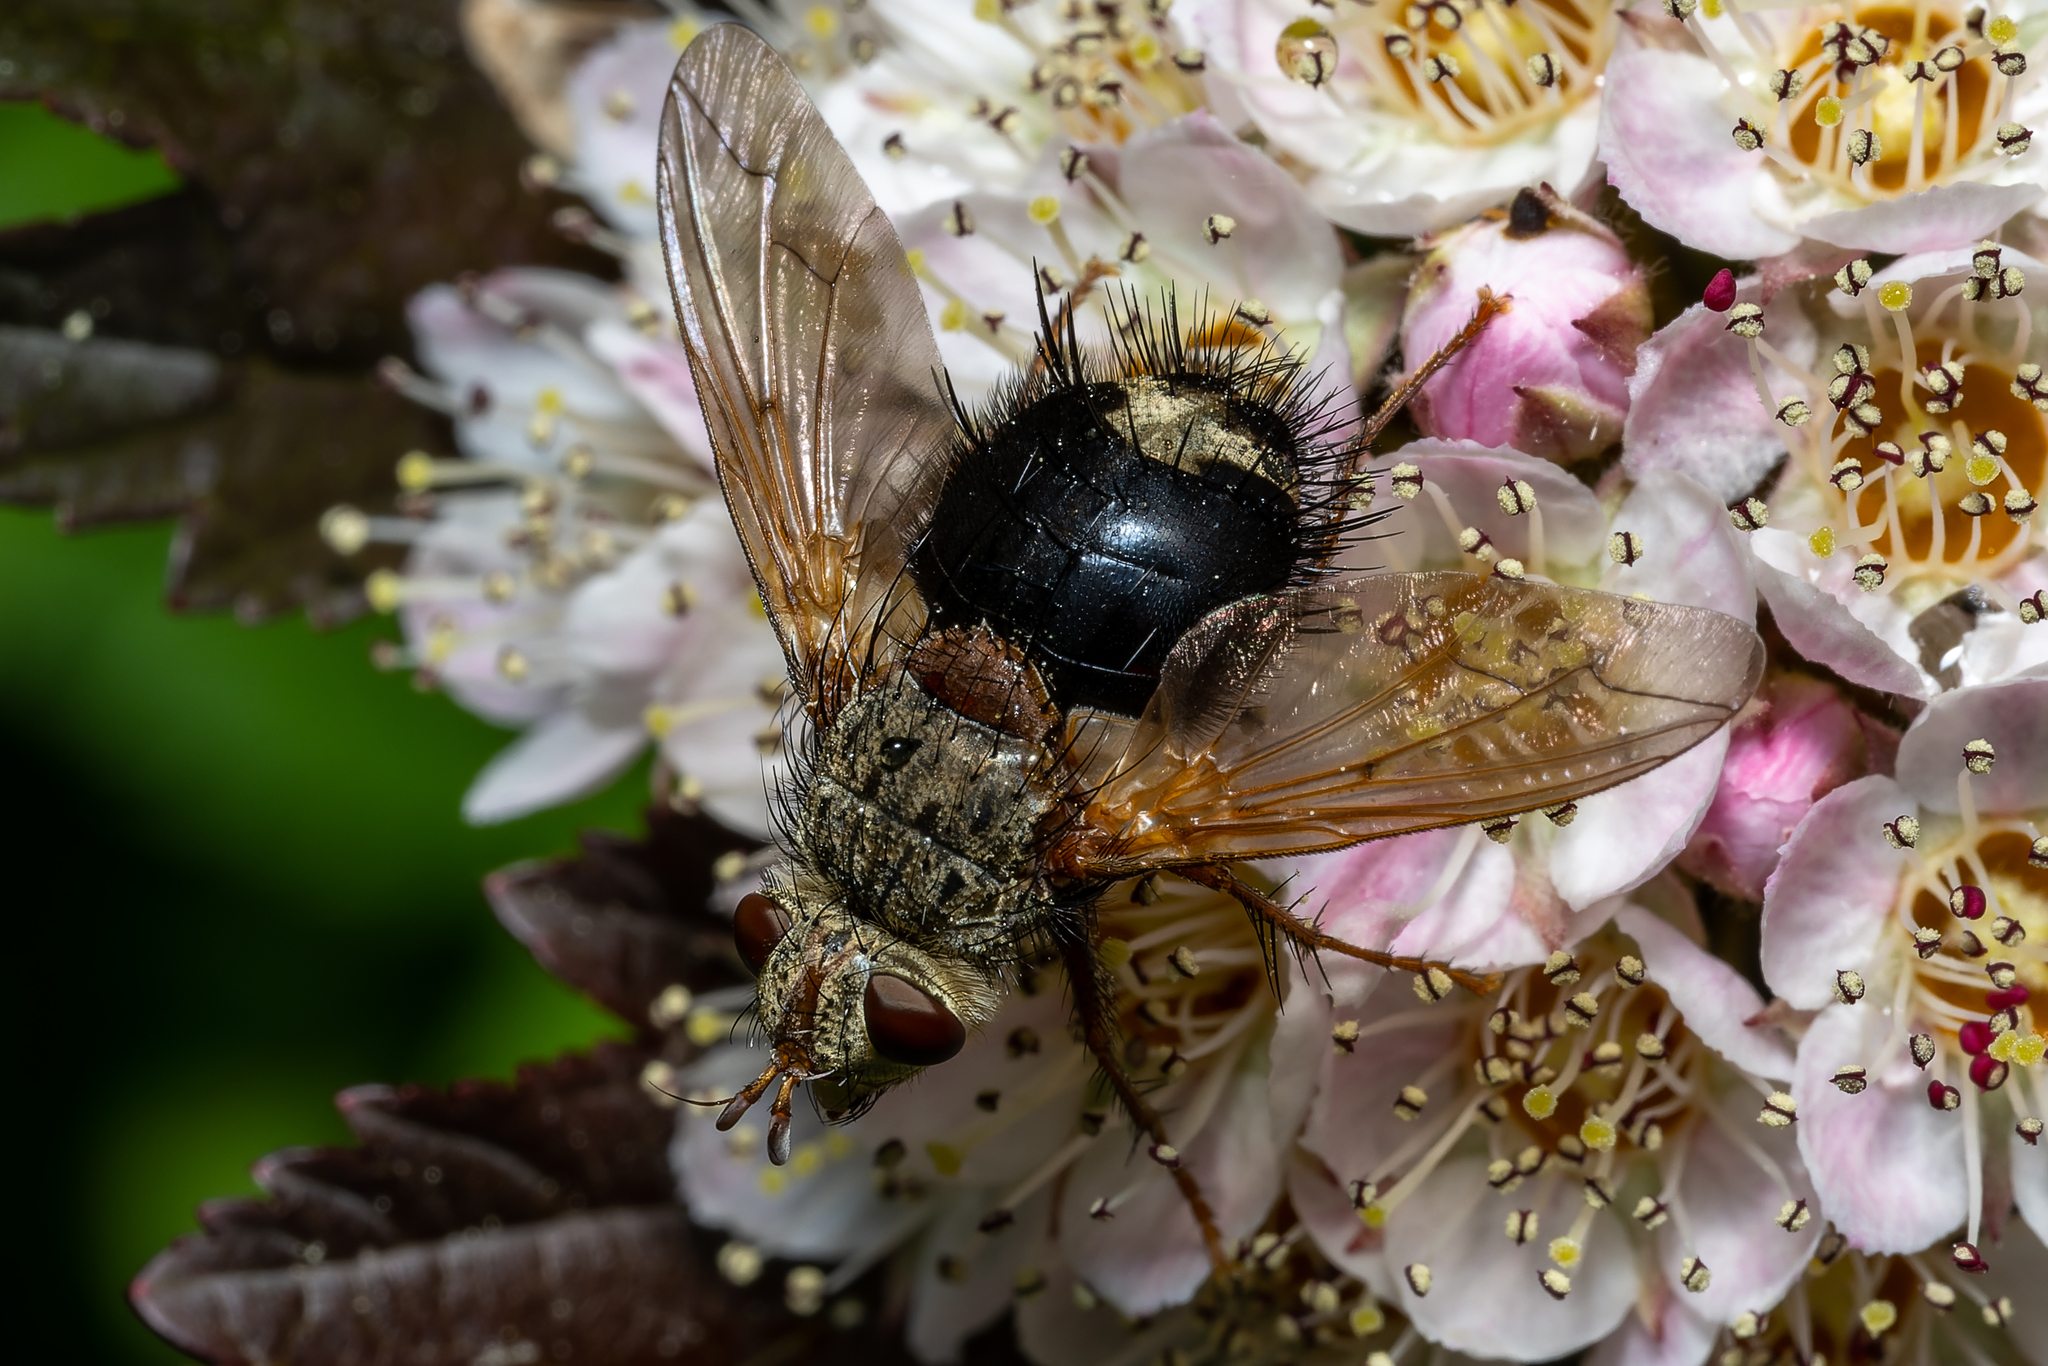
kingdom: Animalia
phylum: Arthropoda
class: Insecta
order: Diptera
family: Tachinidae
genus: Epalpus
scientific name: Epalpus signifer
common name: Early tachinid fly
